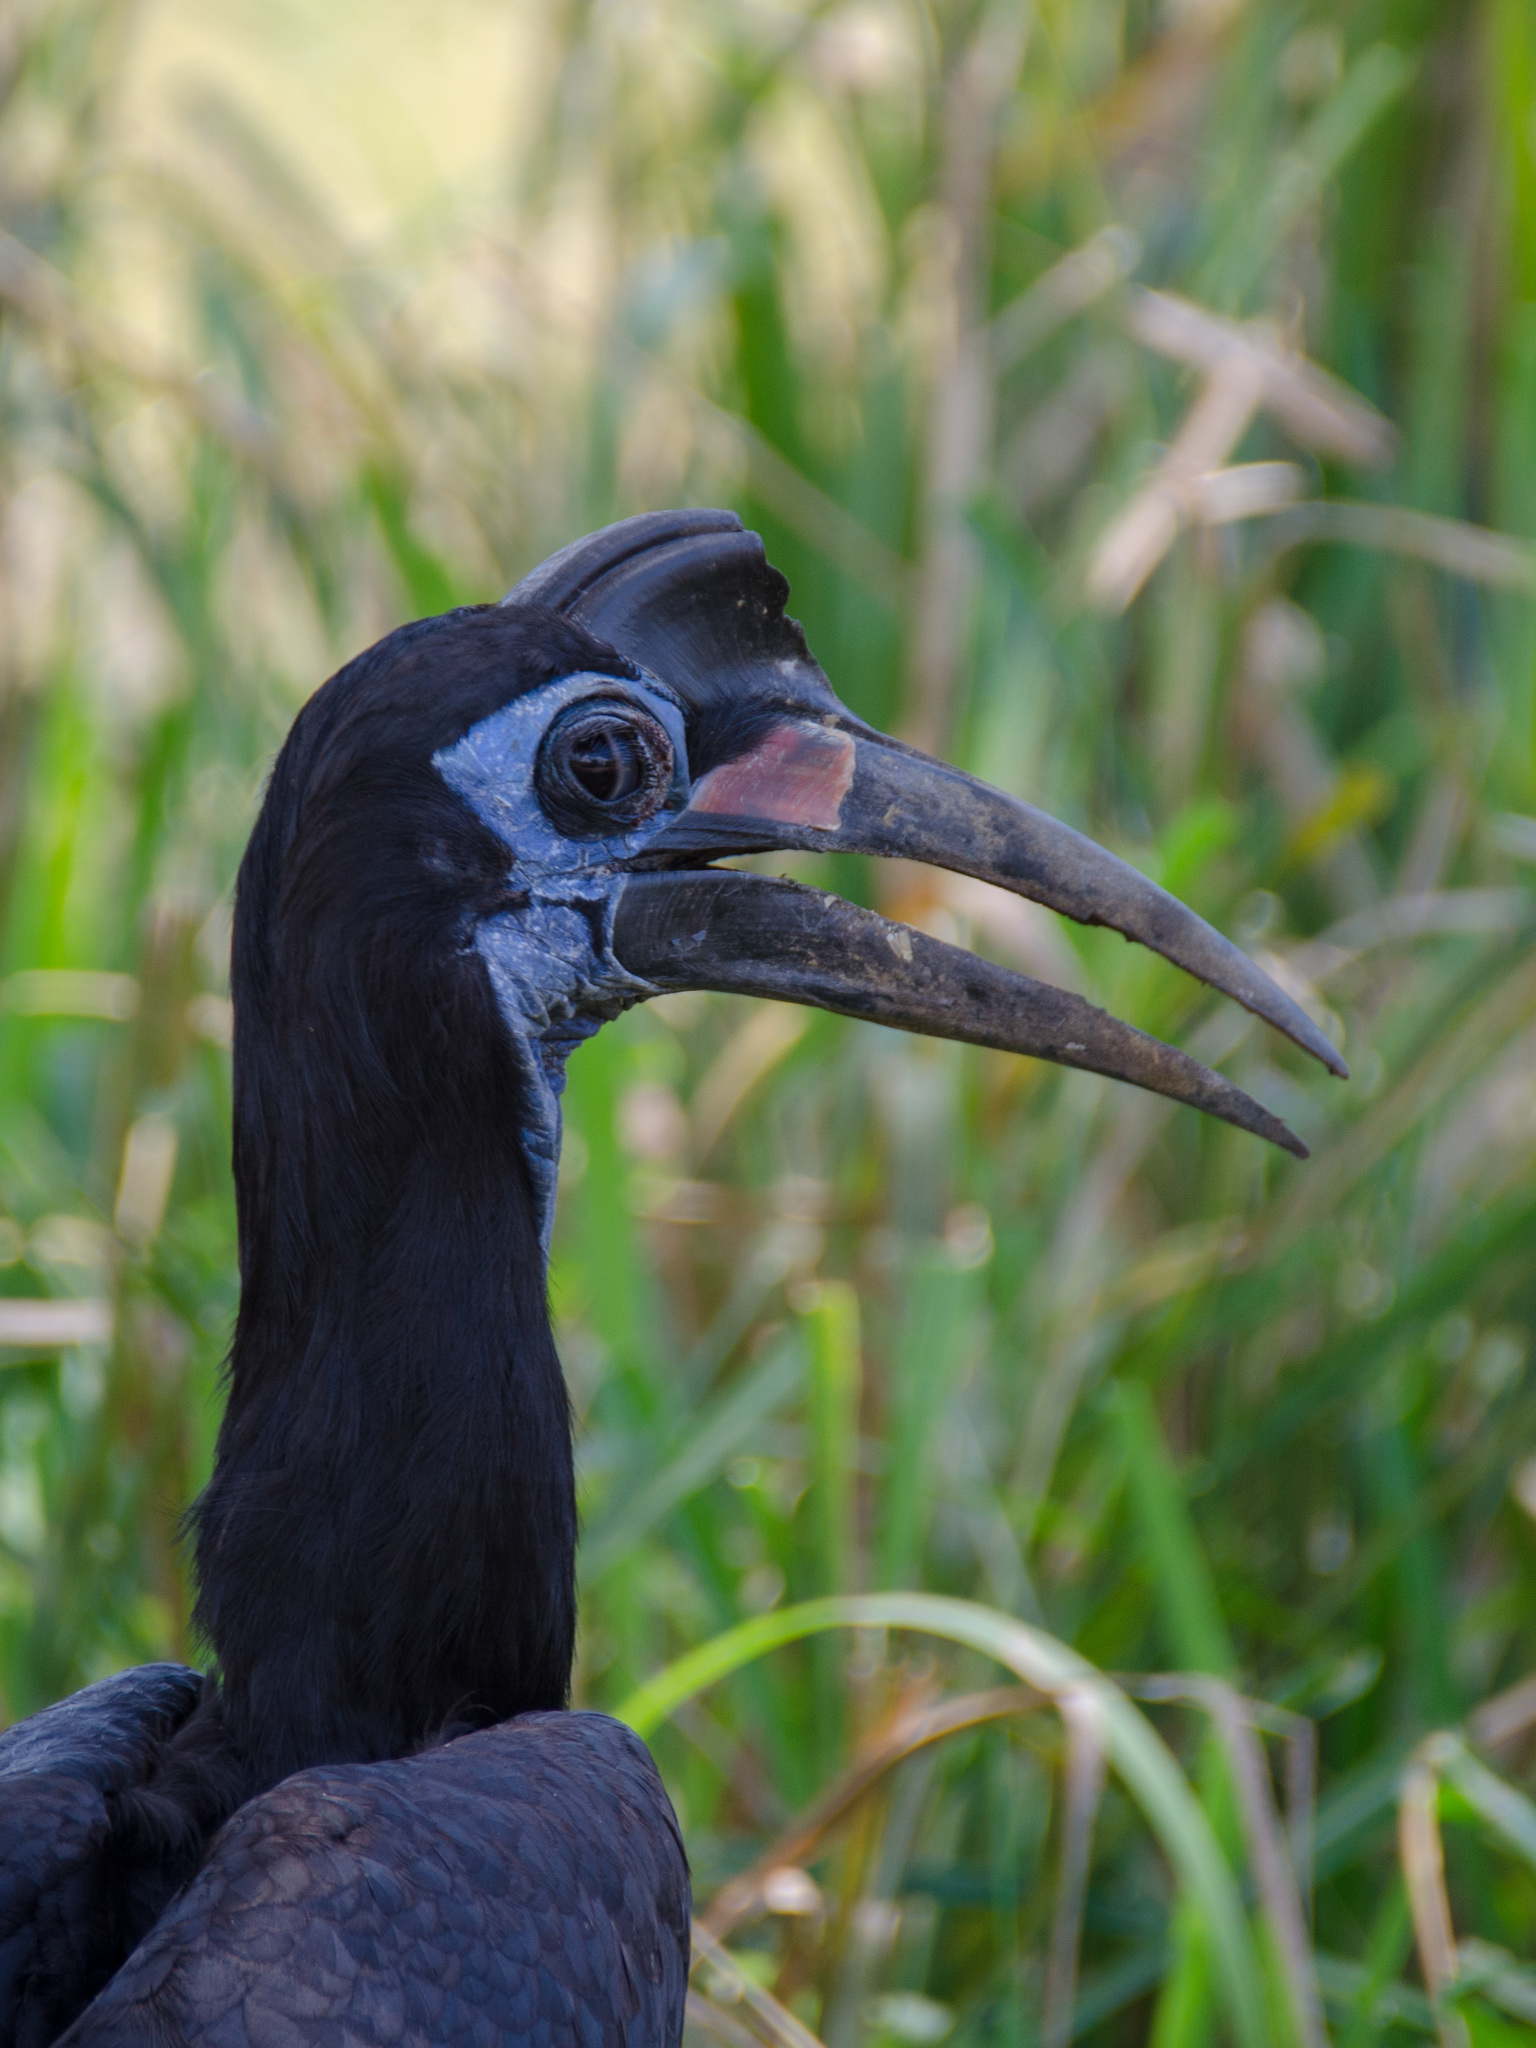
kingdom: Animalia
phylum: Chordata
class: Aves
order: Bucerotiformes
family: Bucorvidae
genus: Bucorvus
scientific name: Bucorvus abyssinicus
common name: Abyssinian ground hornbill
